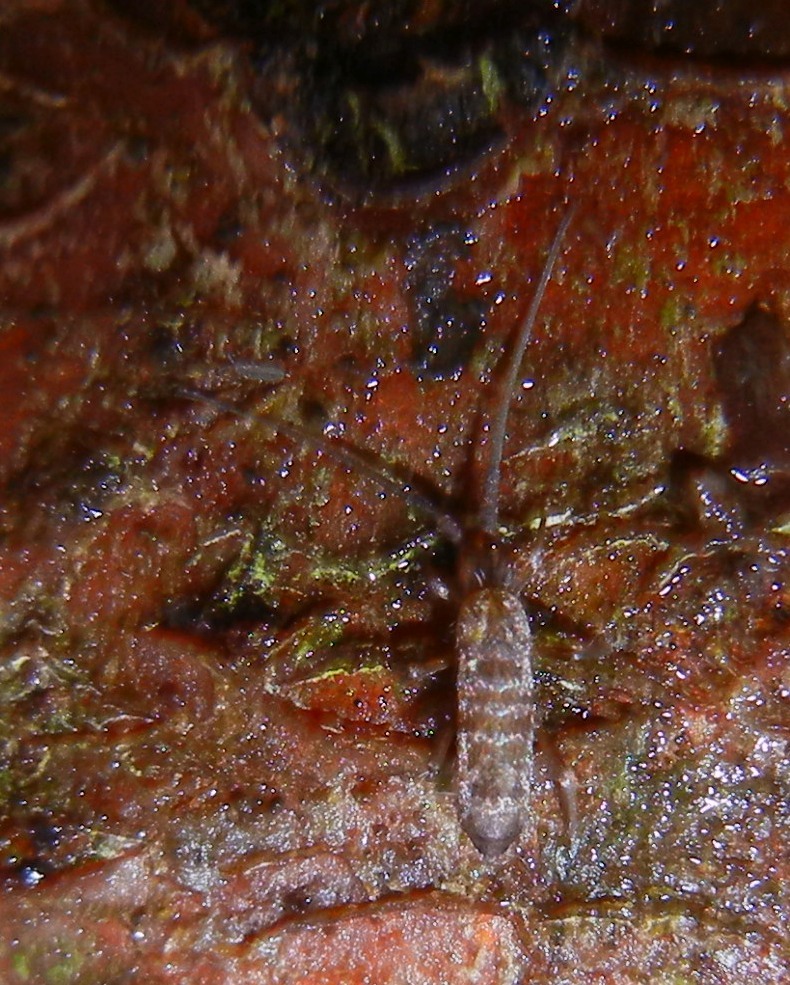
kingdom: Animalia
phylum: Arthropoda
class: Collembola
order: Entomobryomorpha
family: Tomoceridae
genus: Pogonognathellus
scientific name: Pogonognathellus longicornis
